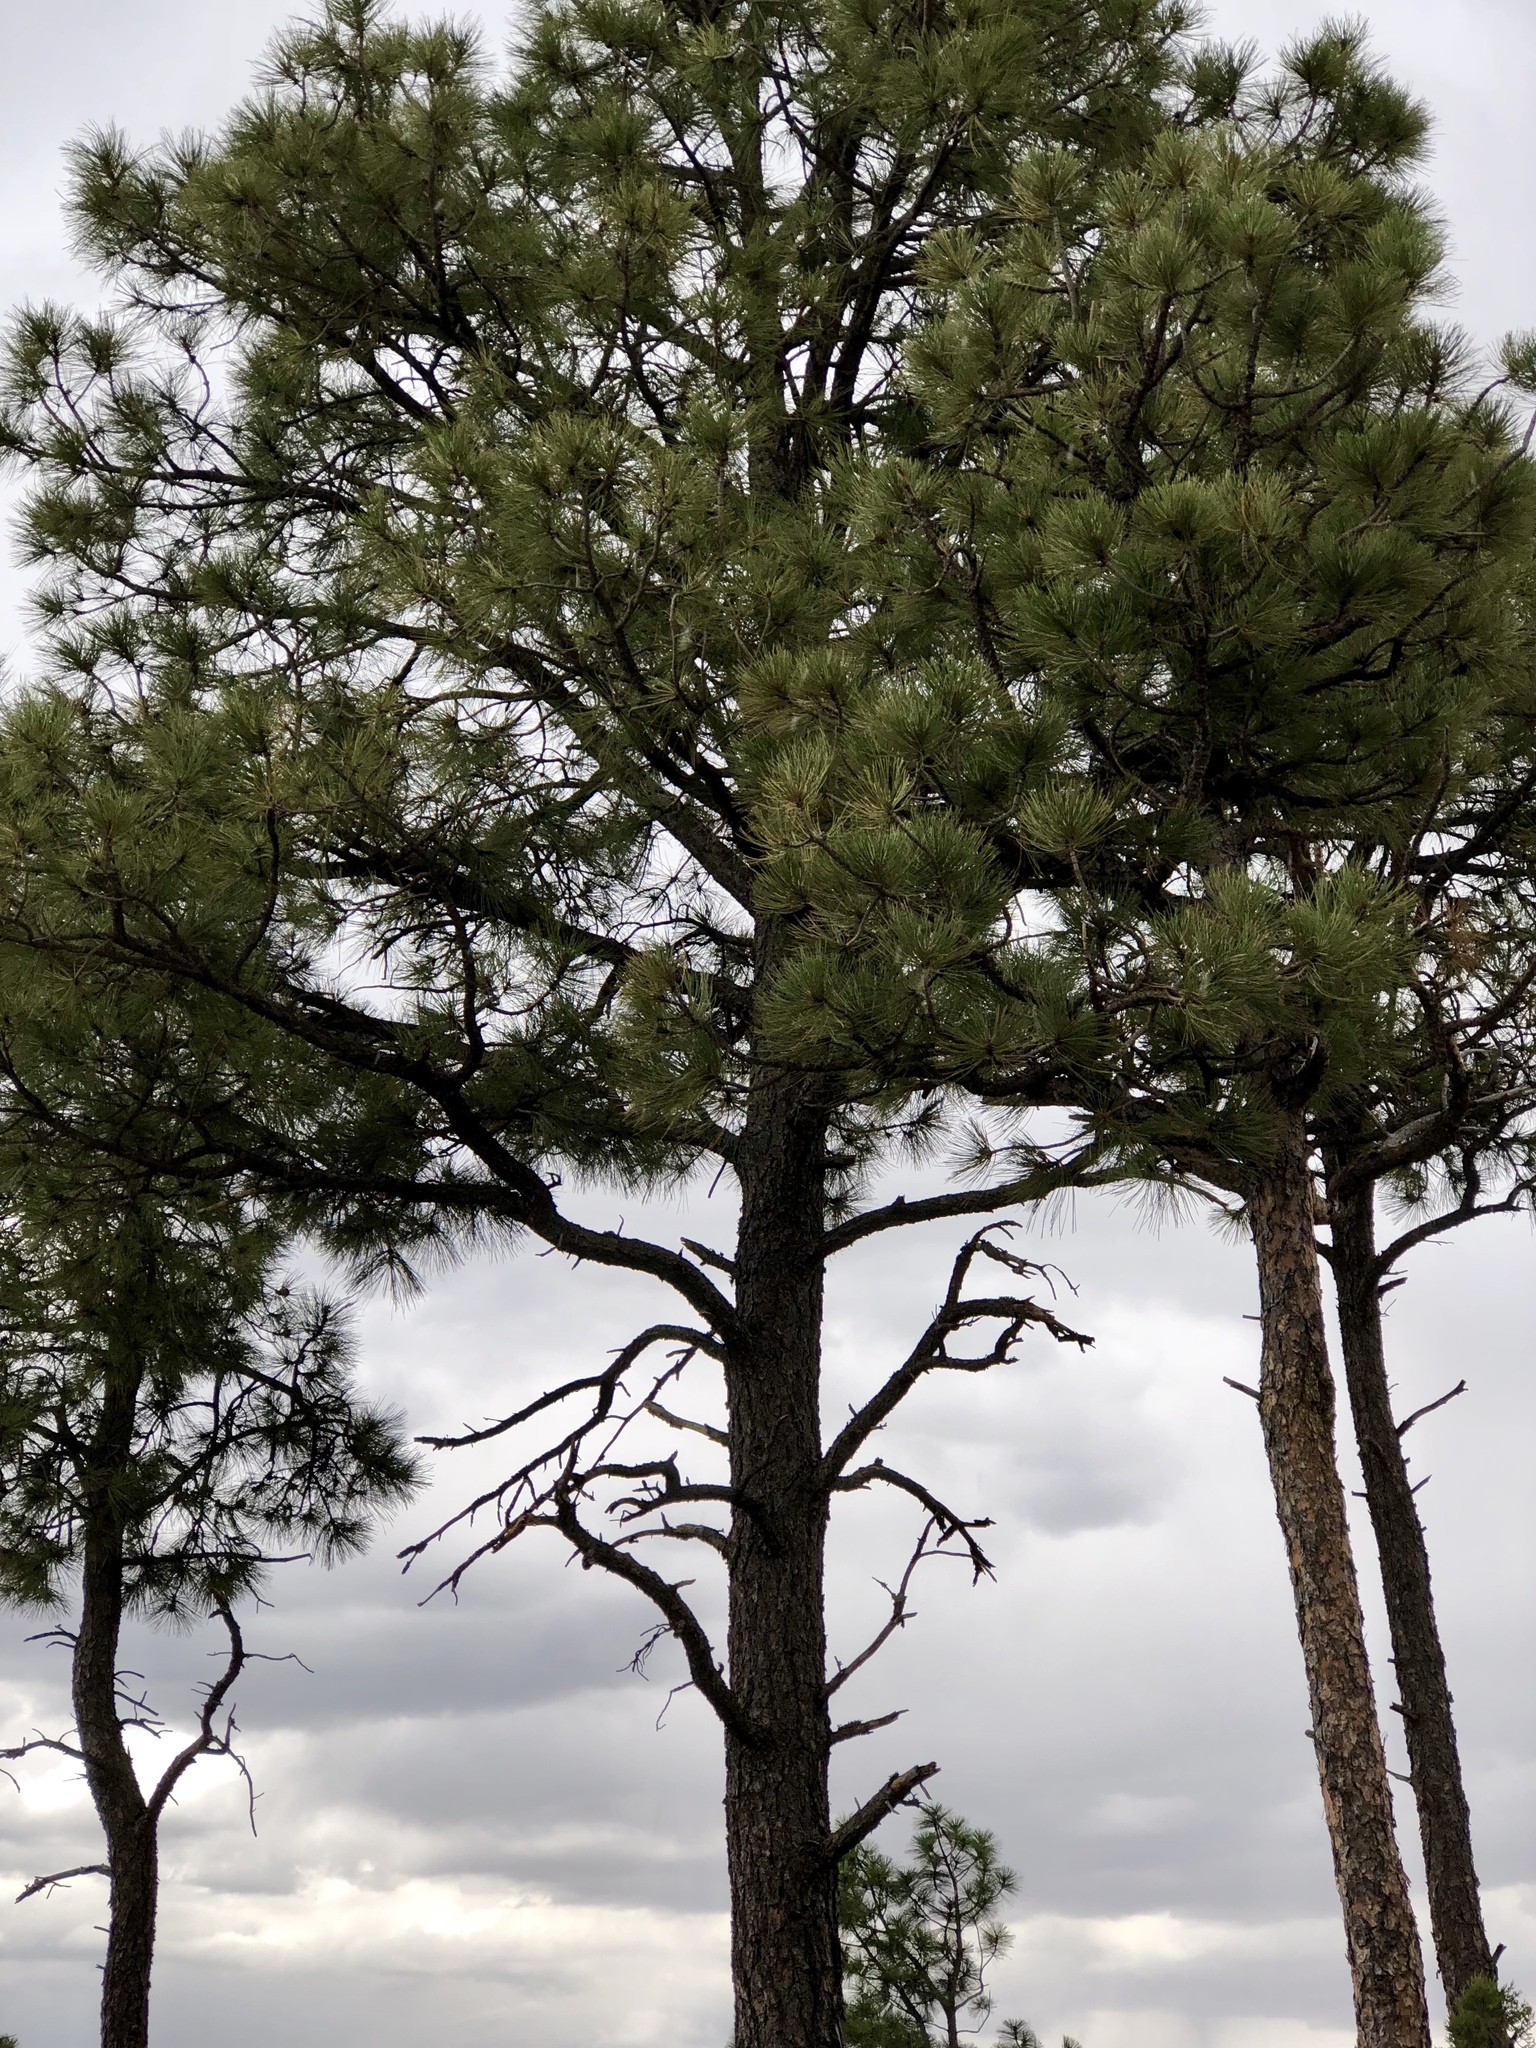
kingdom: Plantae
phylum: Tracheophyta
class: Pinopsida
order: Pinales
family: Pinaceae
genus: Pinus
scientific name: Pinus ponderosa
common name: Western yellow-pine
